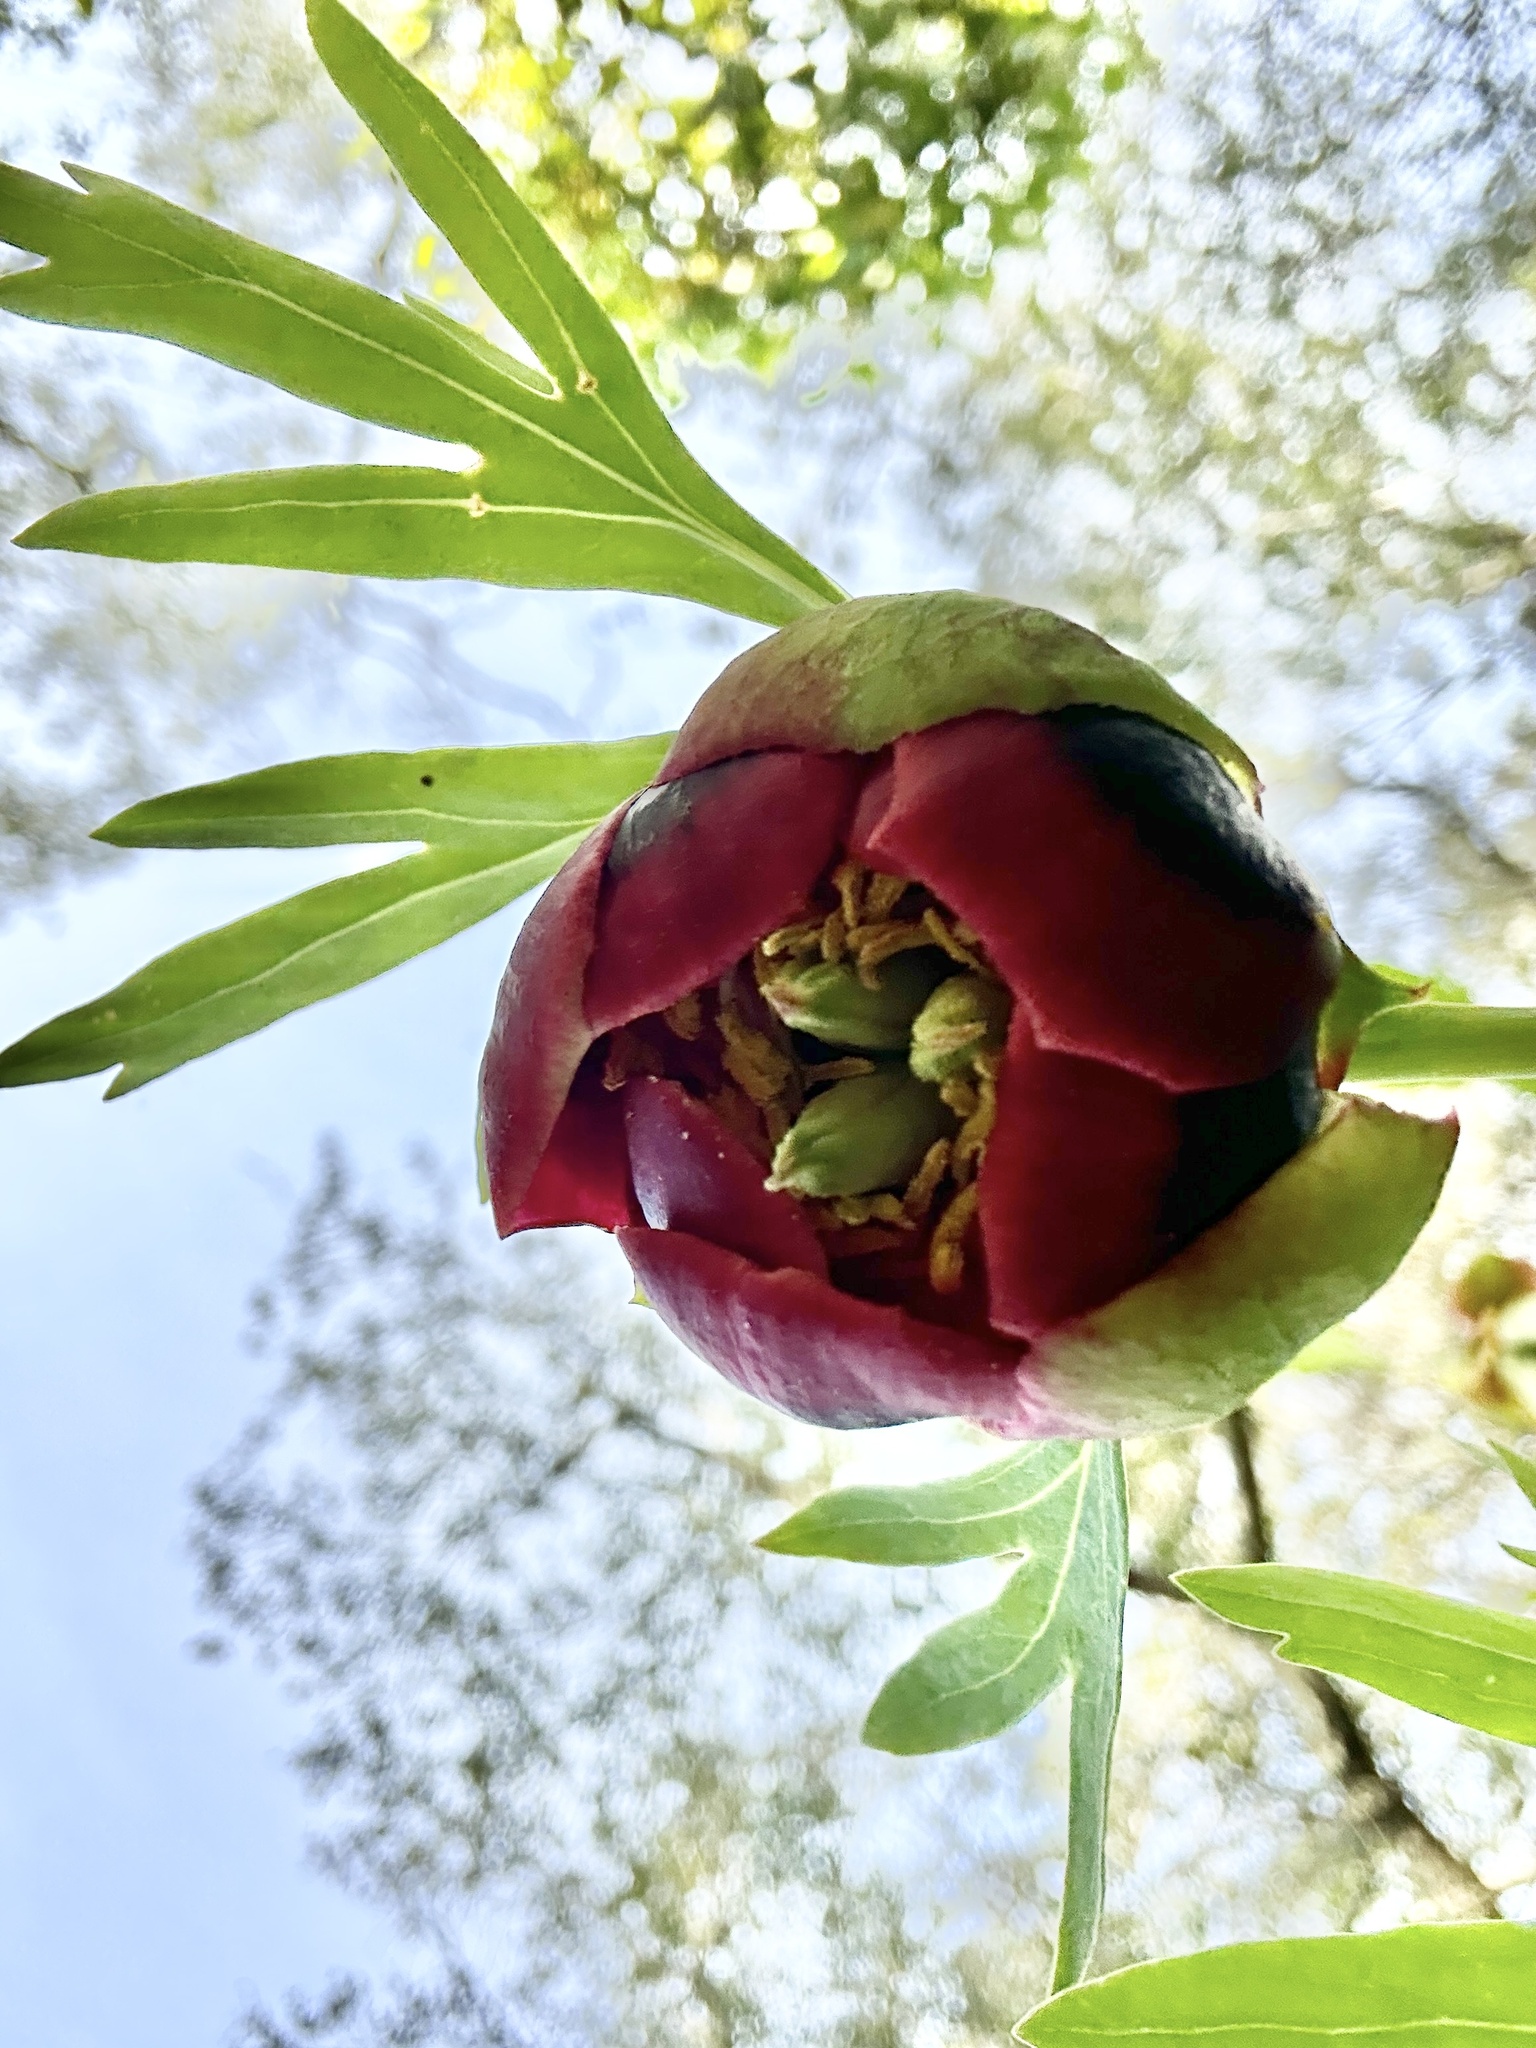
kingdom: Plantae
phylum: Tracheophyta
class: Magnoliopsida
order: Saxifragales
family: Paeoniaceae
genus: Paeonia
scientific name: Paeonia californica
